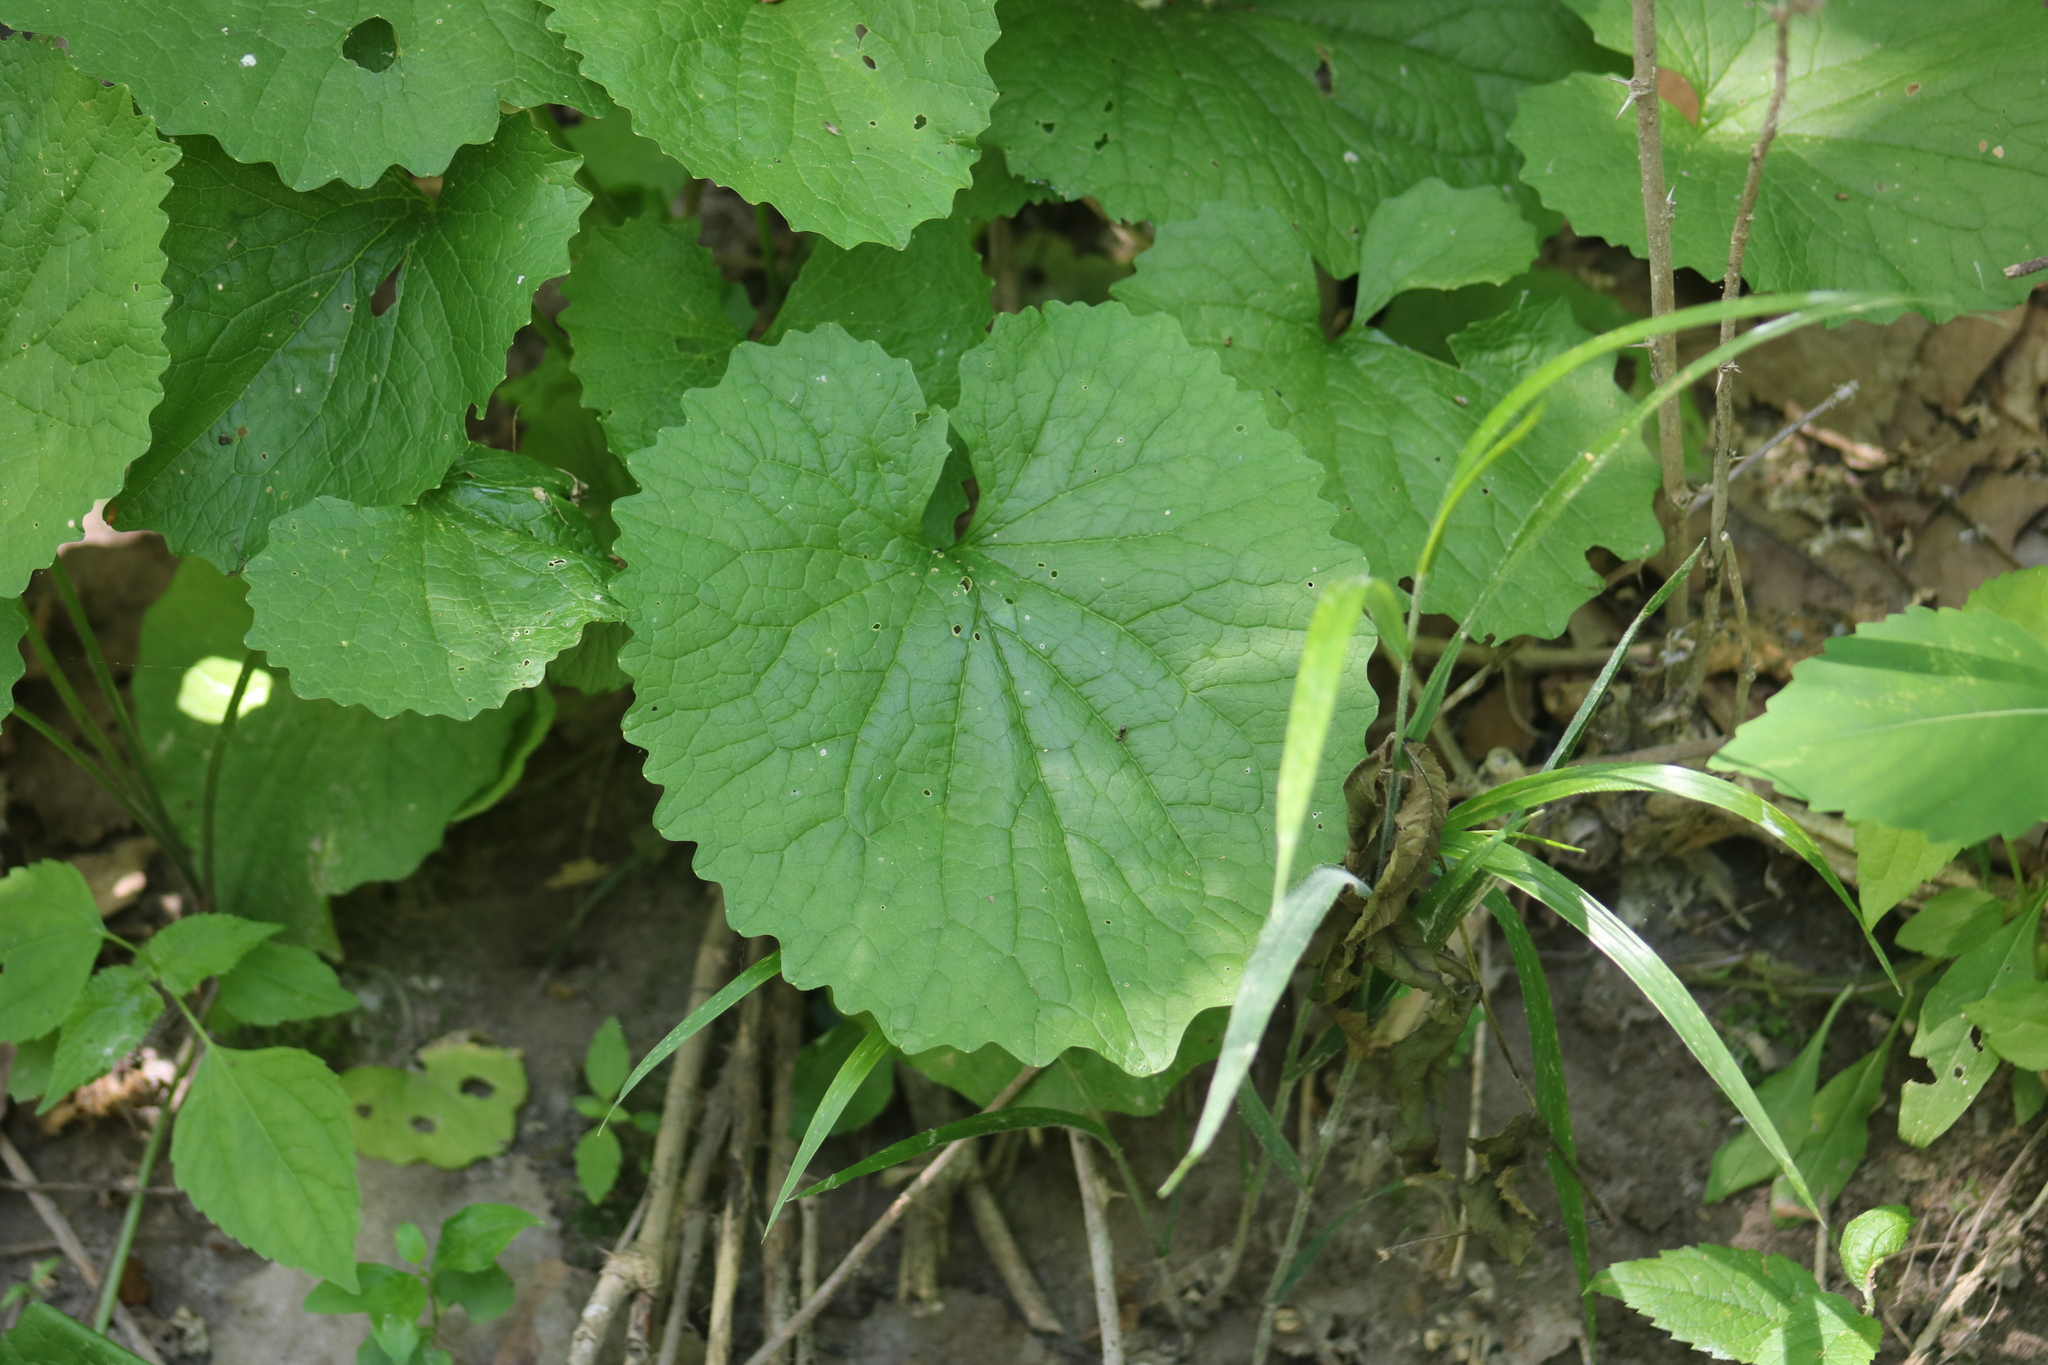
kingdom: Plantae
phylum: Tracheophyta
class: Magnoliopsida
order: Brassicales
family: Brassicaceae
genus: Alliaria
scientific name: Alliaria petiolata
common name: Garlic mustard
